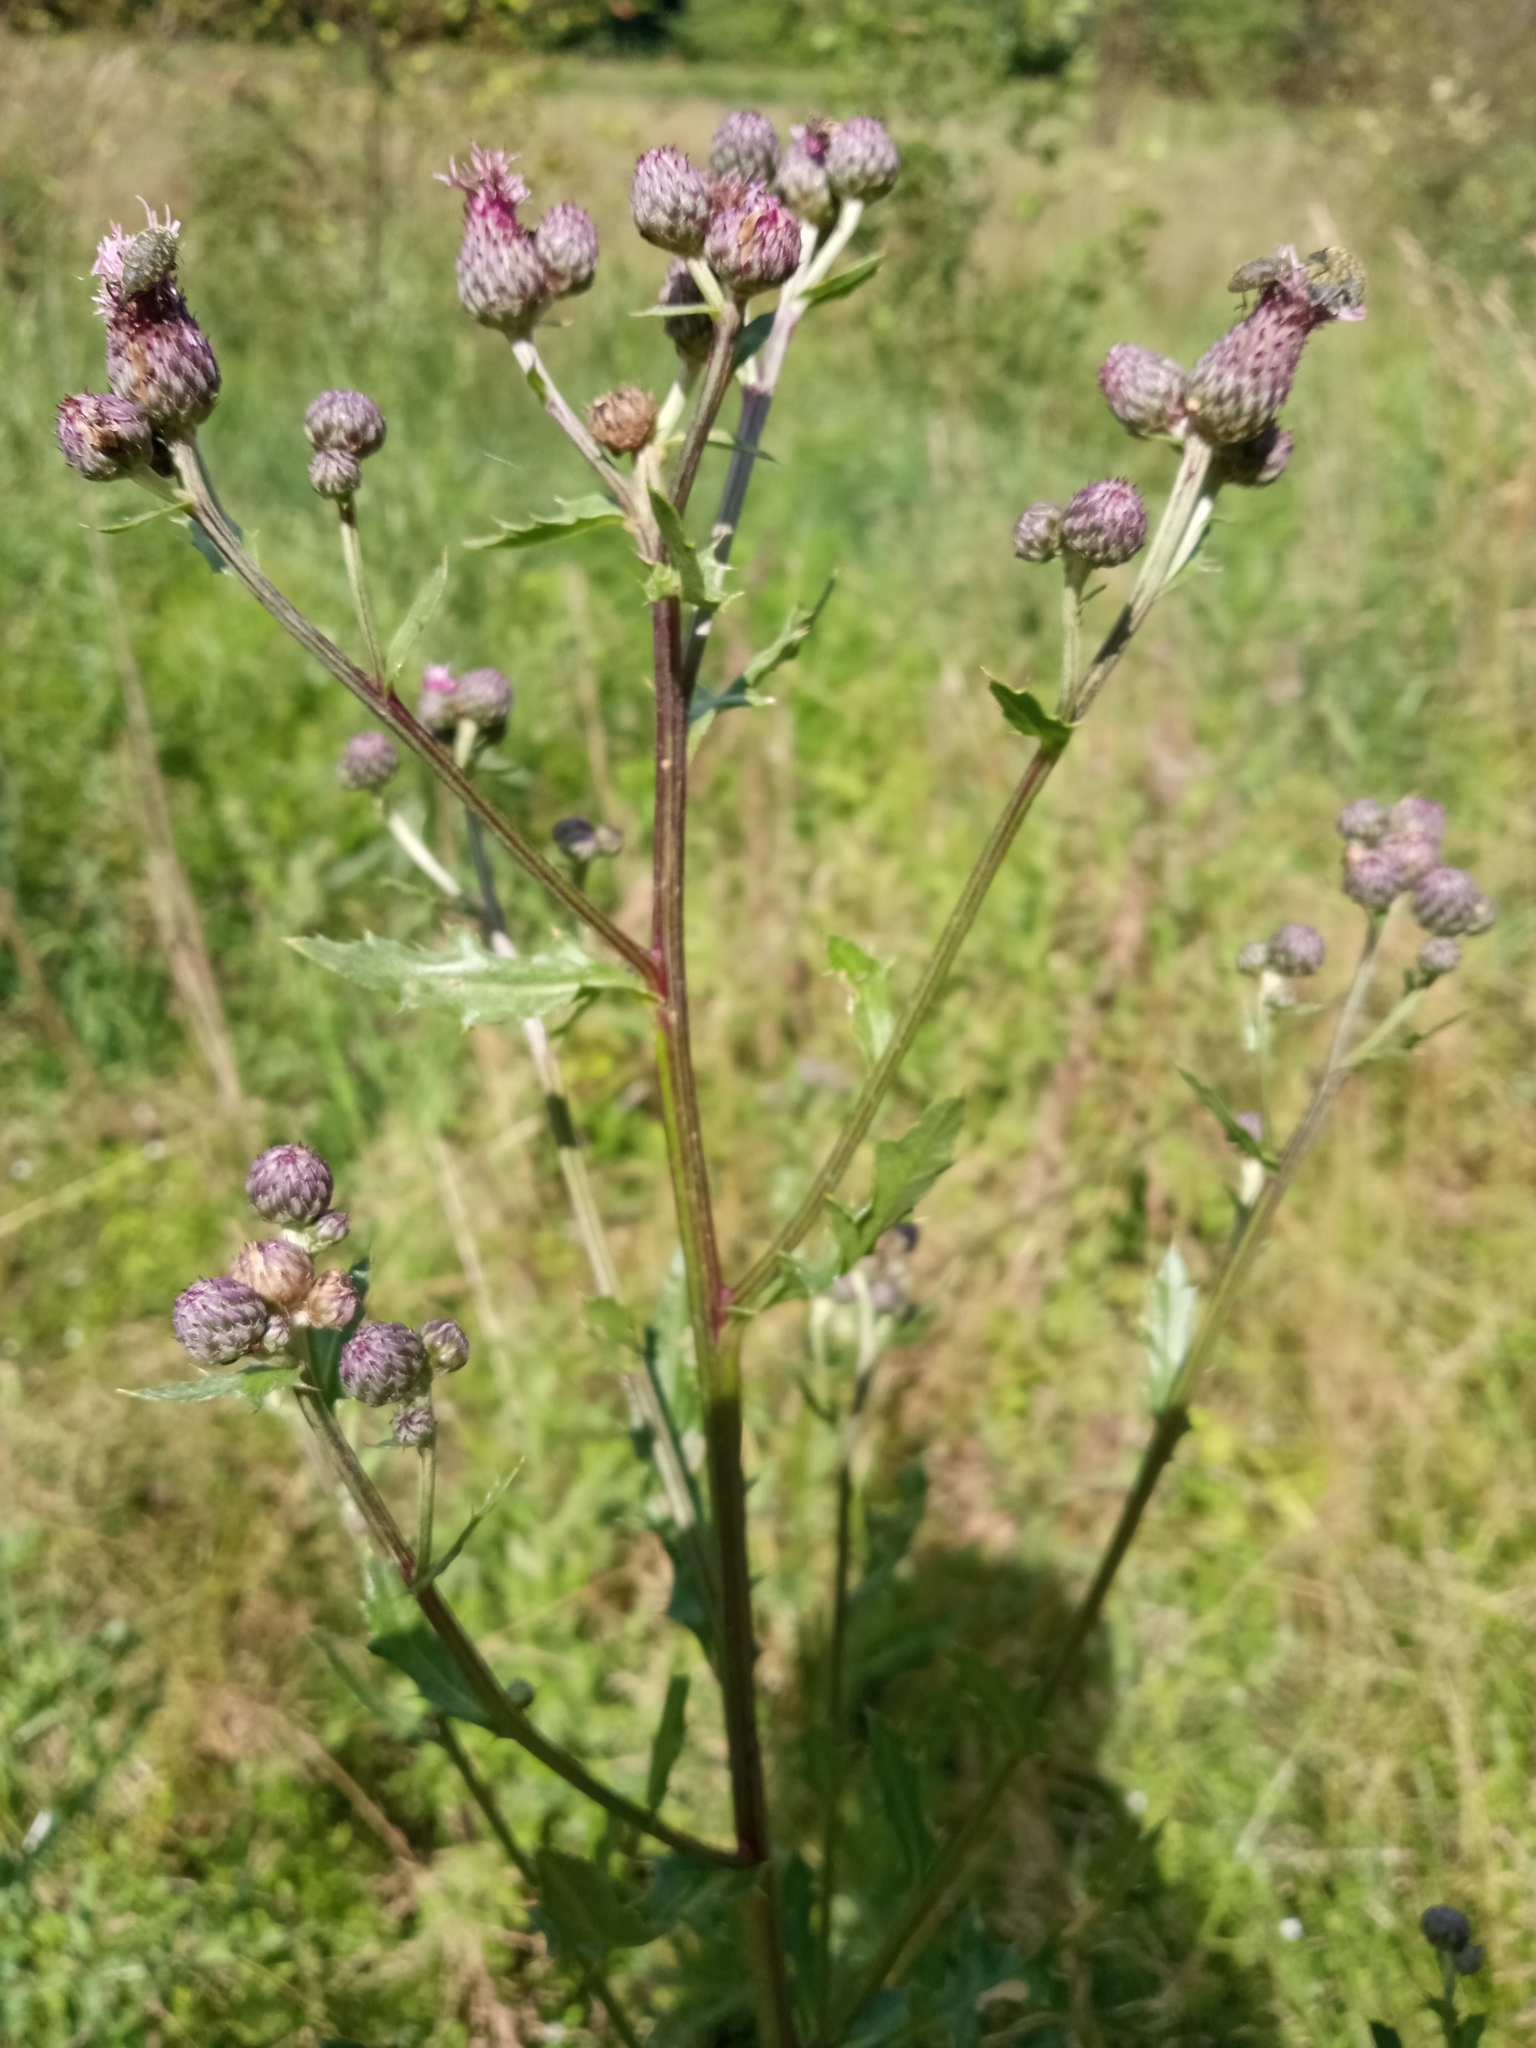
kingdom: Plantae
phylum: Tracheophyta
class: Magnoliopsida
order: Asterales
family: Asteraceae
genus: Cirsium
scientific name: Cirsium arvense
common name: Creeping thistle
